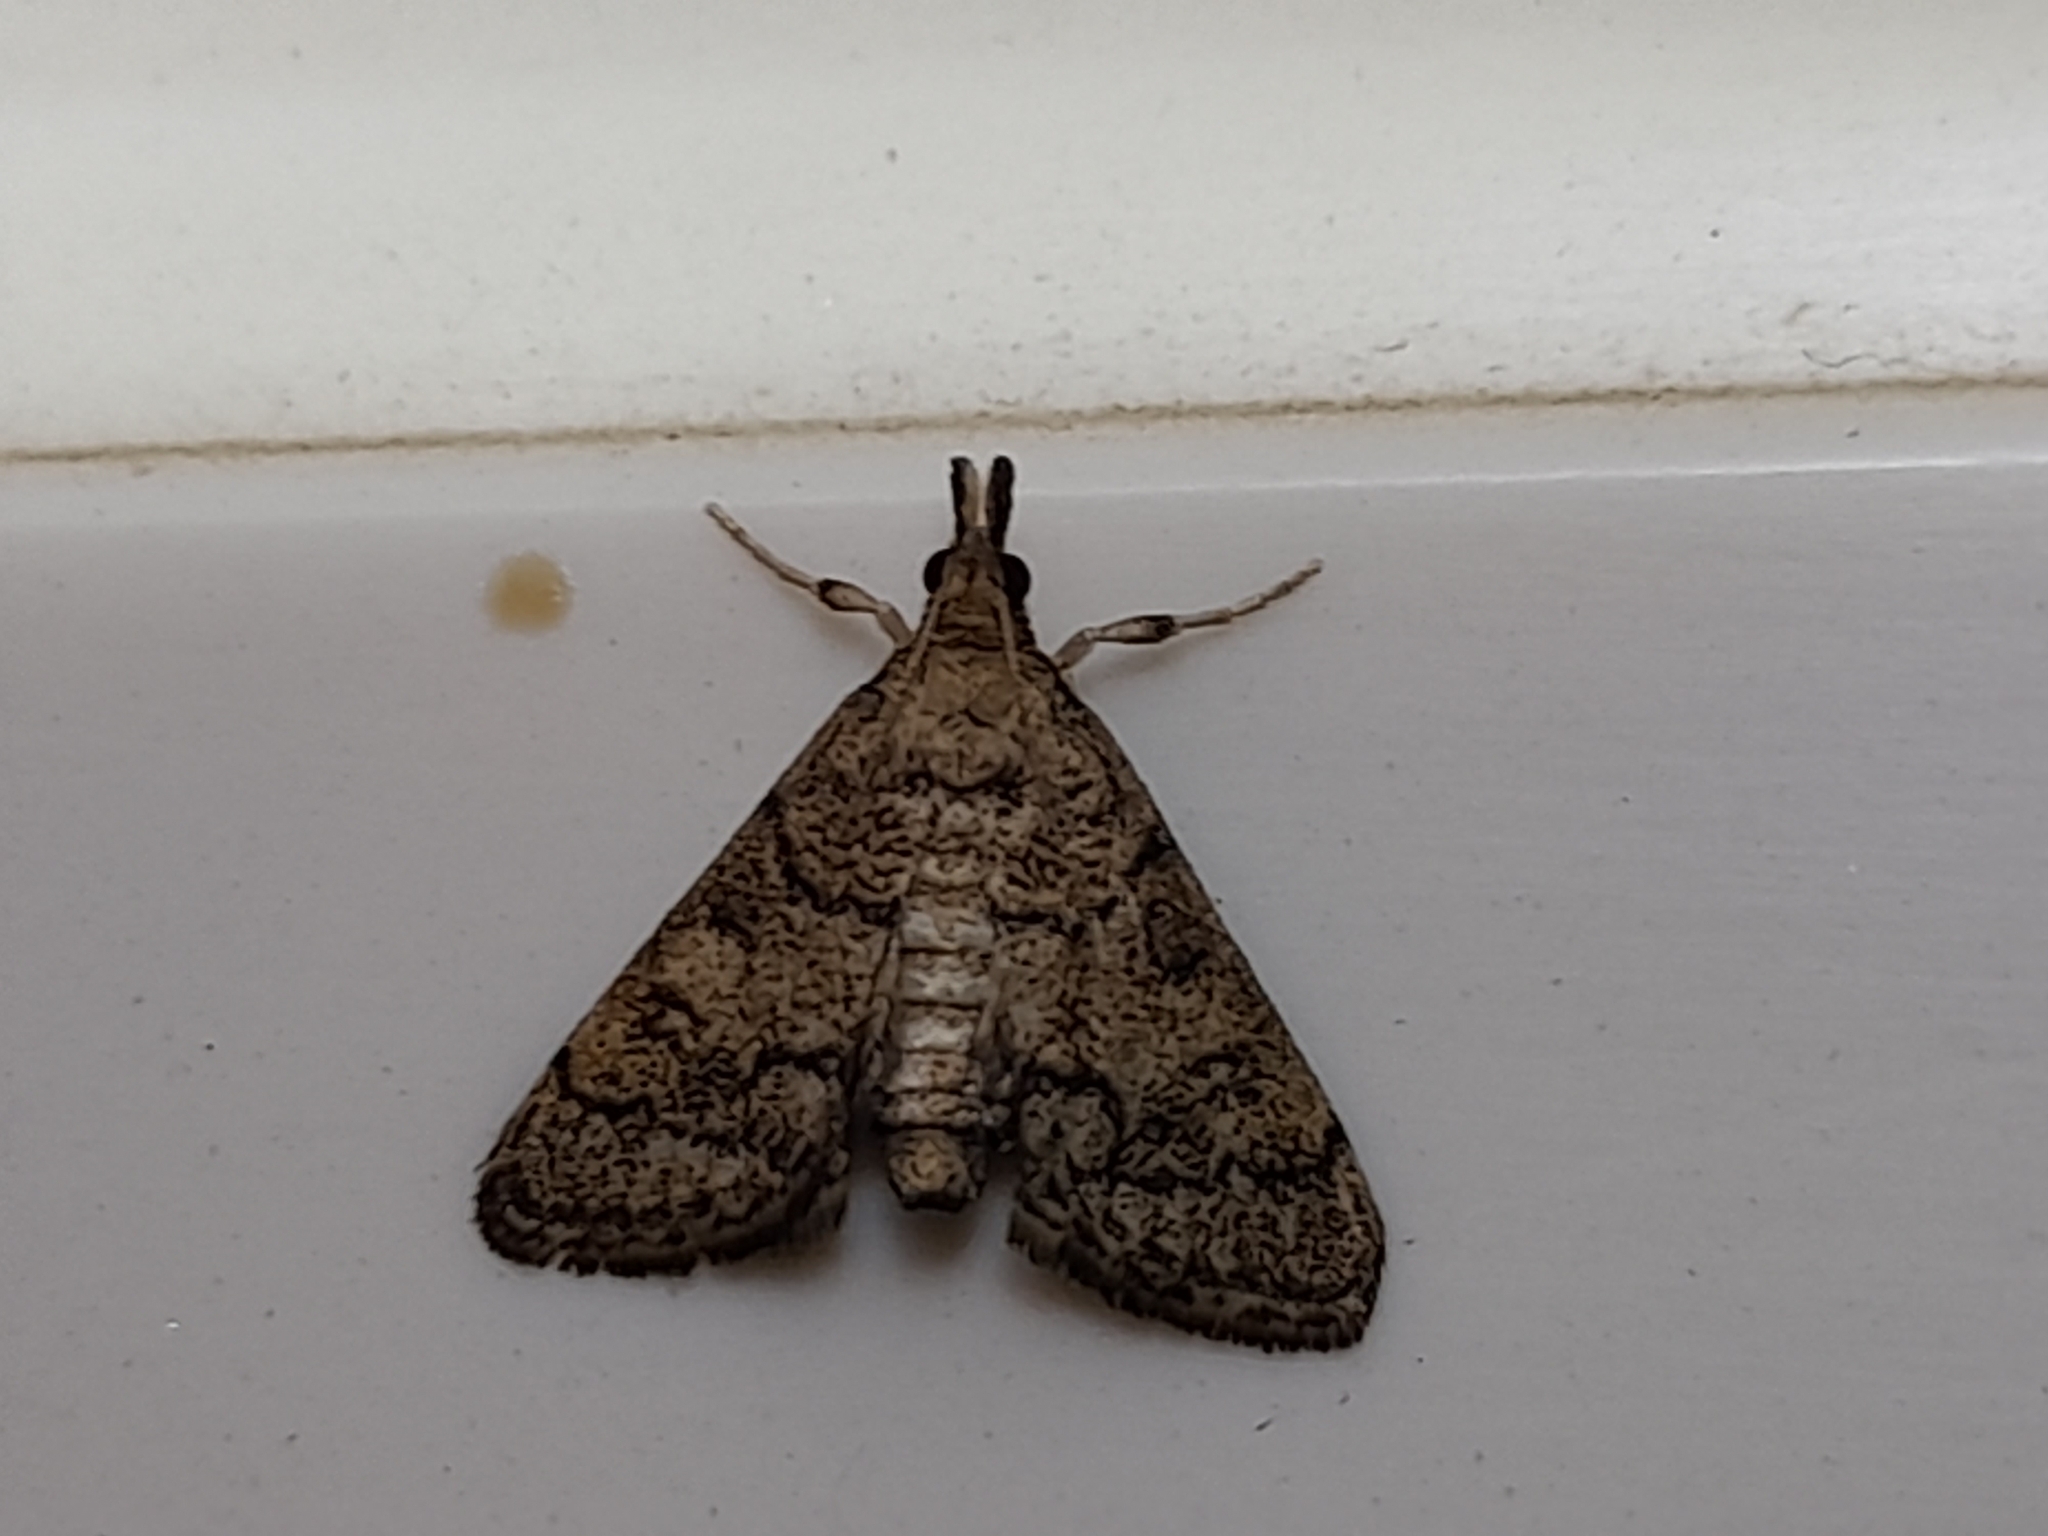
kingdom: Animalia
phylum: Arthropoda
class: Insecta
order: Lepidoptera
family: Crambidae
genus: Metasia
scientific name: Metasia cuencalis
